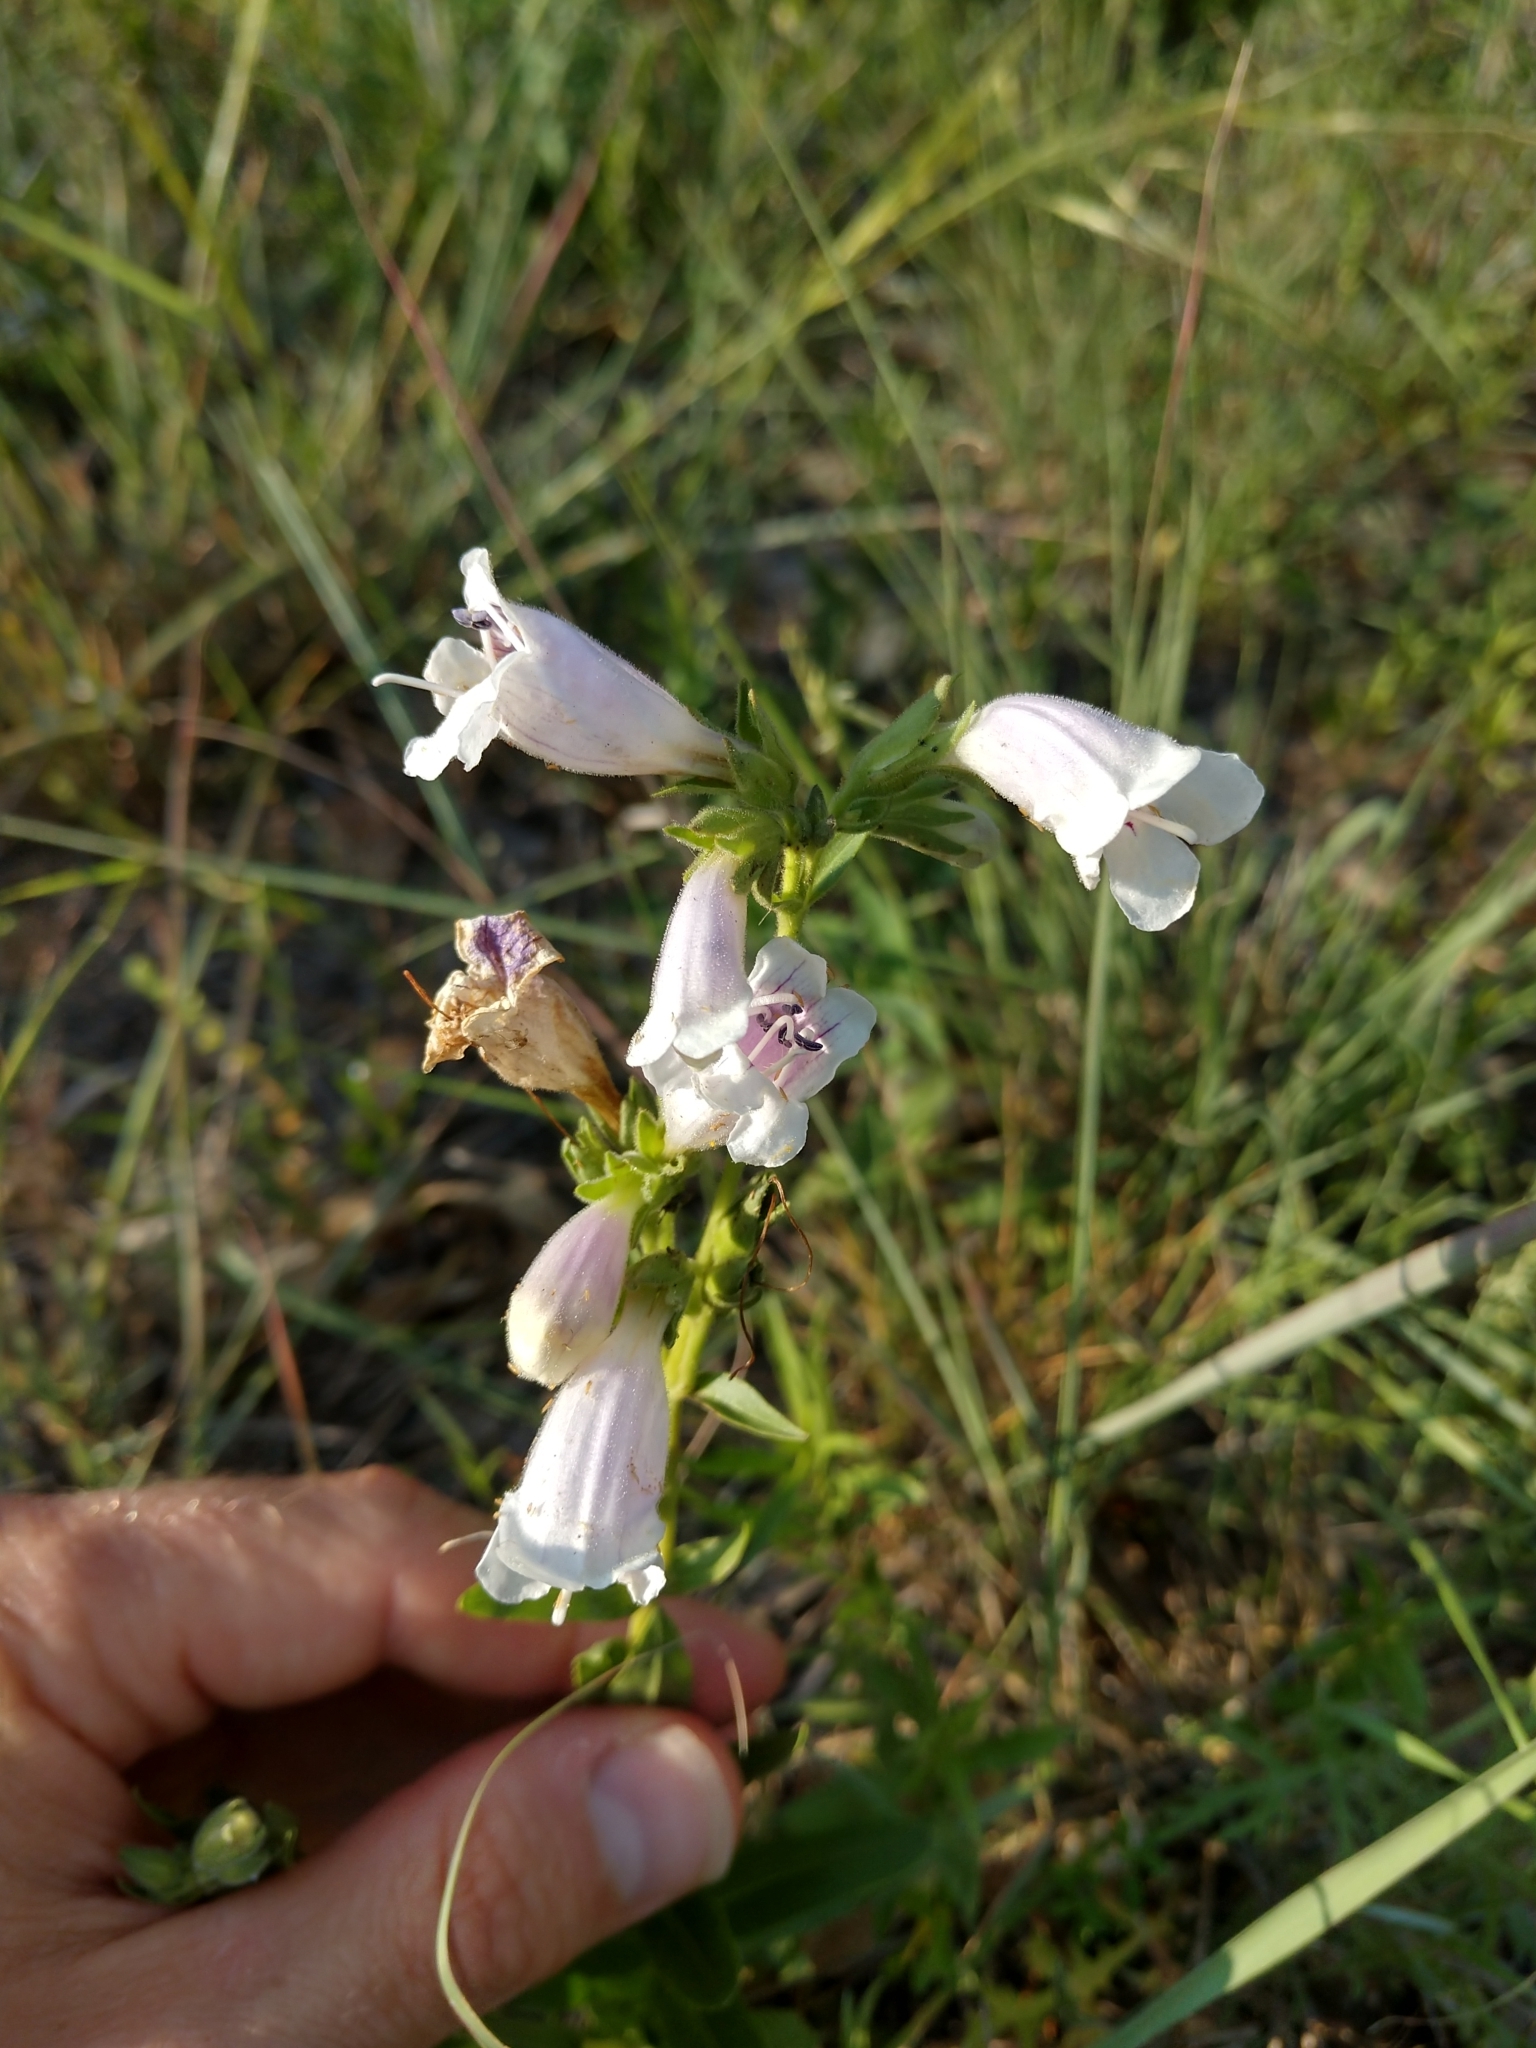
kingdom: Plantae
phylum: Tracheophyta
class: Magnoliopsida
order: Lamiales
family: Plantaginaceae
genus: Penstemon
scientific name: Penstemon cobaea
